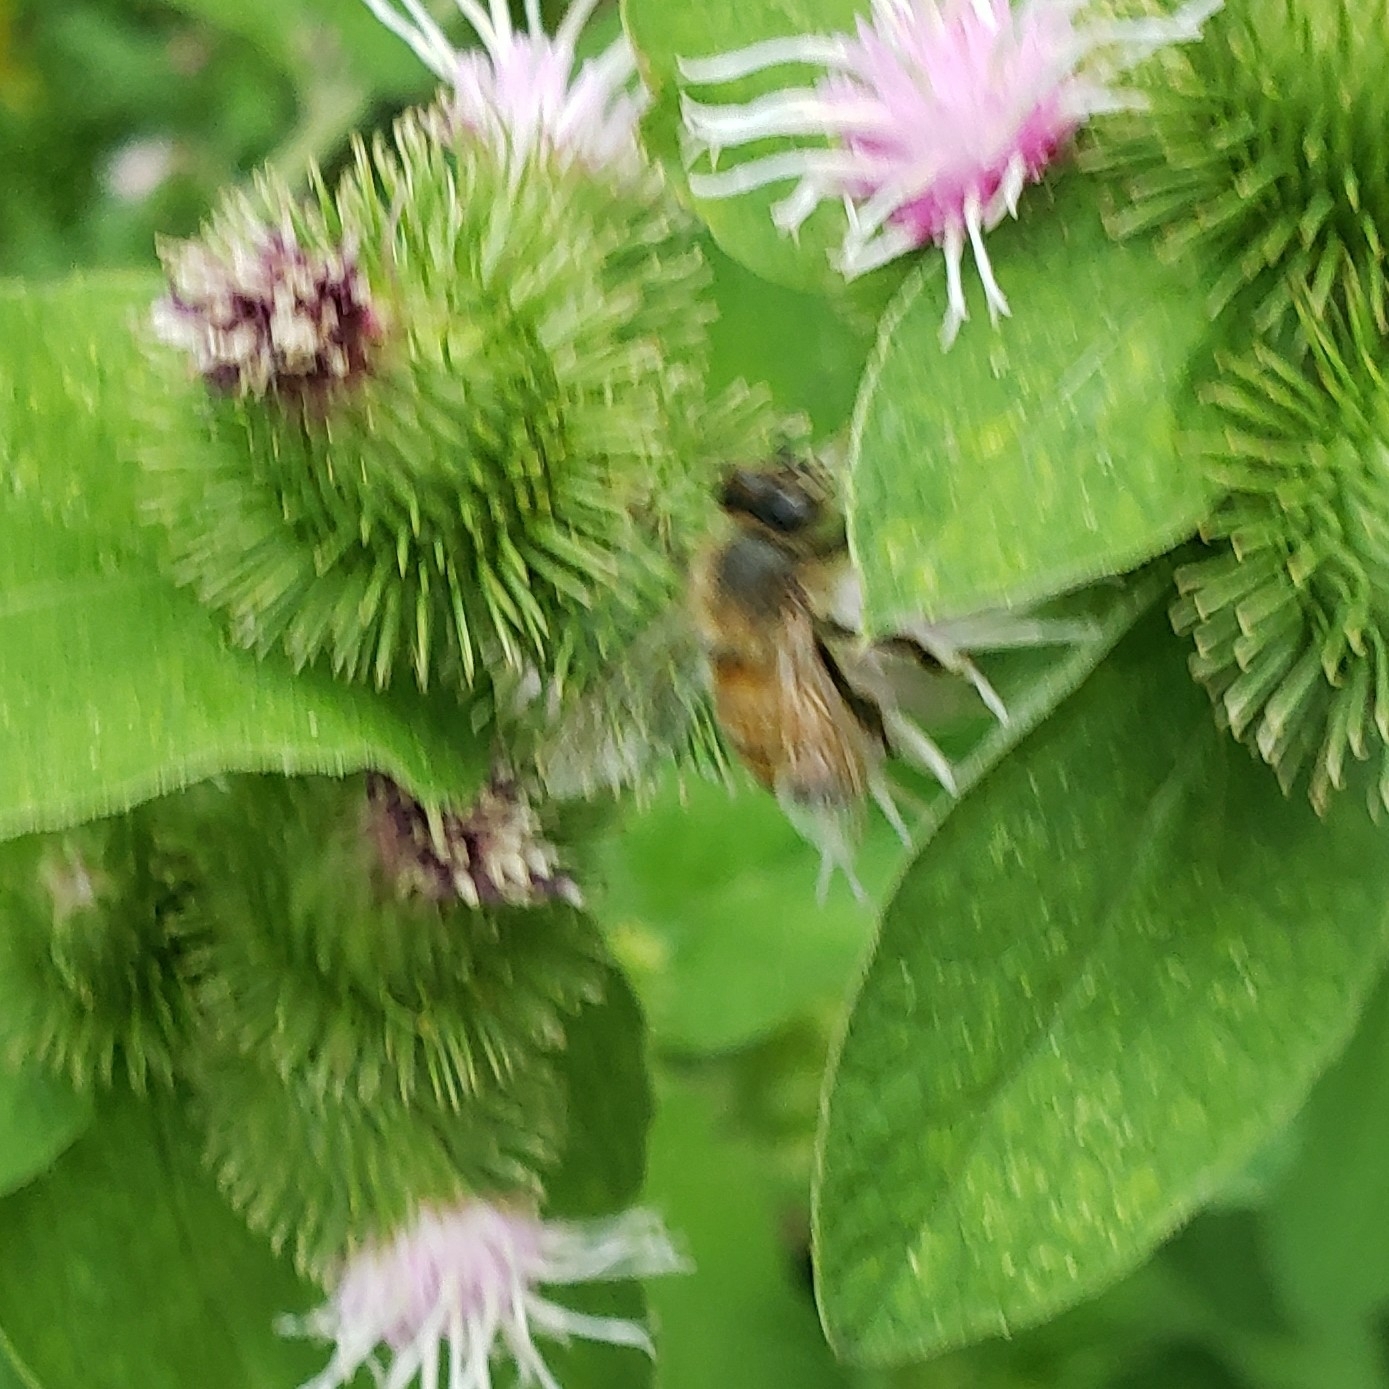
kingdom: Animalia
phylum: Arthropoda
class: Insecta
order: Hymenoptera
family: Apidae
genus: Apis
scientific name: Apis mellifera
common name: Honey bee
